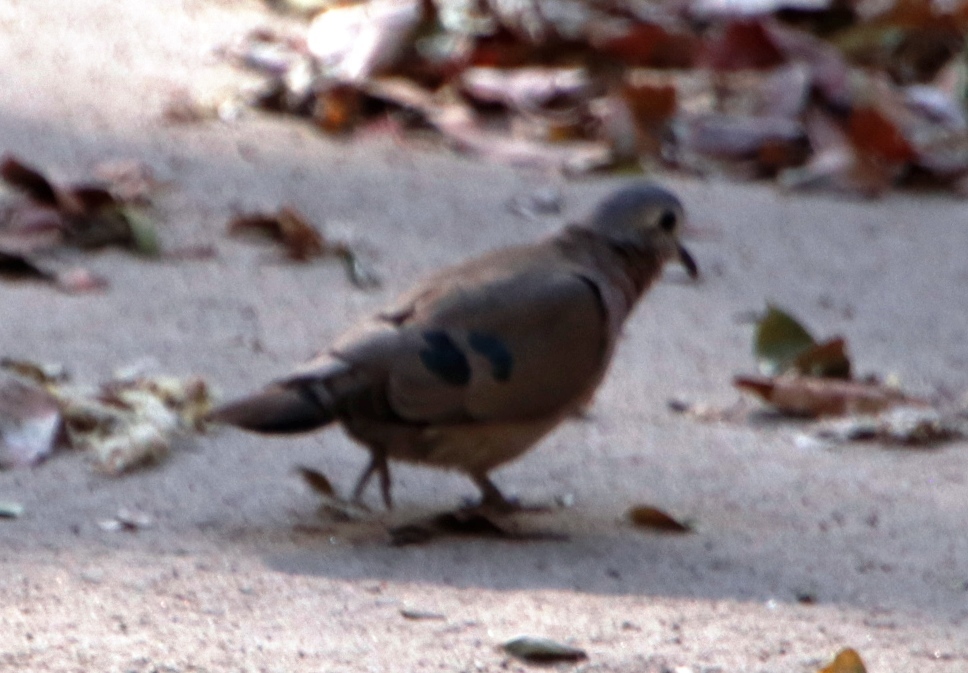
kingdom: Animalia
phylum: Chordata
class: Aves
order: Columbiformes
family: Columbidae
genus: Turtur
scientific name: Turtur chalcospilos
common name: Emerald-spotted wood dove
